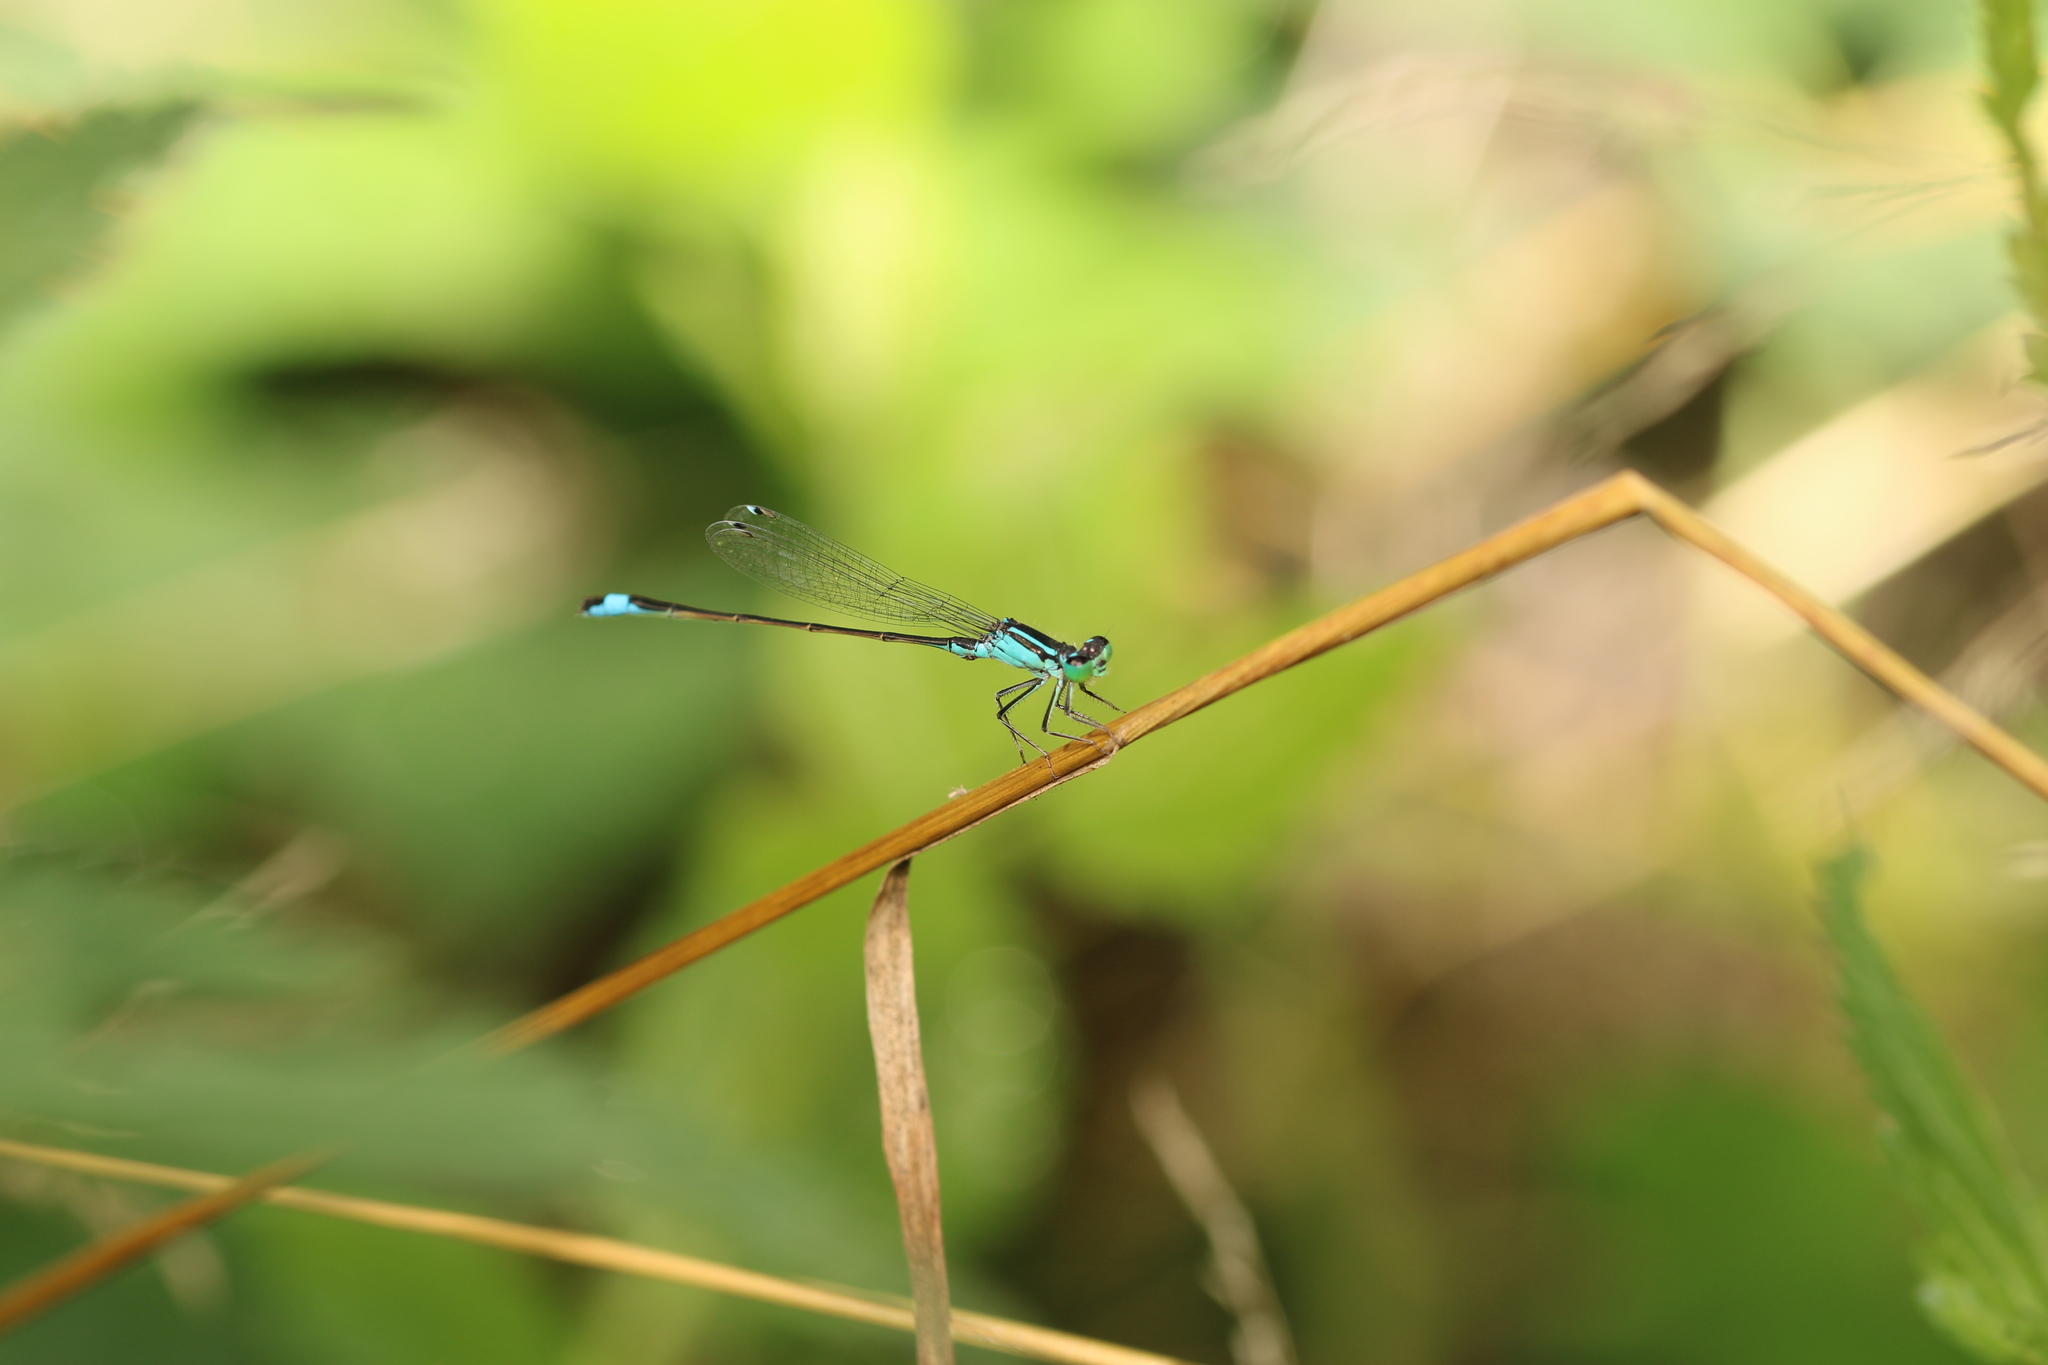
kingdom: Animalia
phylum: Arthropoda
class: Insecta
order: Odonata
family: Coenagrionidae
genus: Ischnura
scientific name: Ischnura elegans
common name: Blue-tailed damselfly
